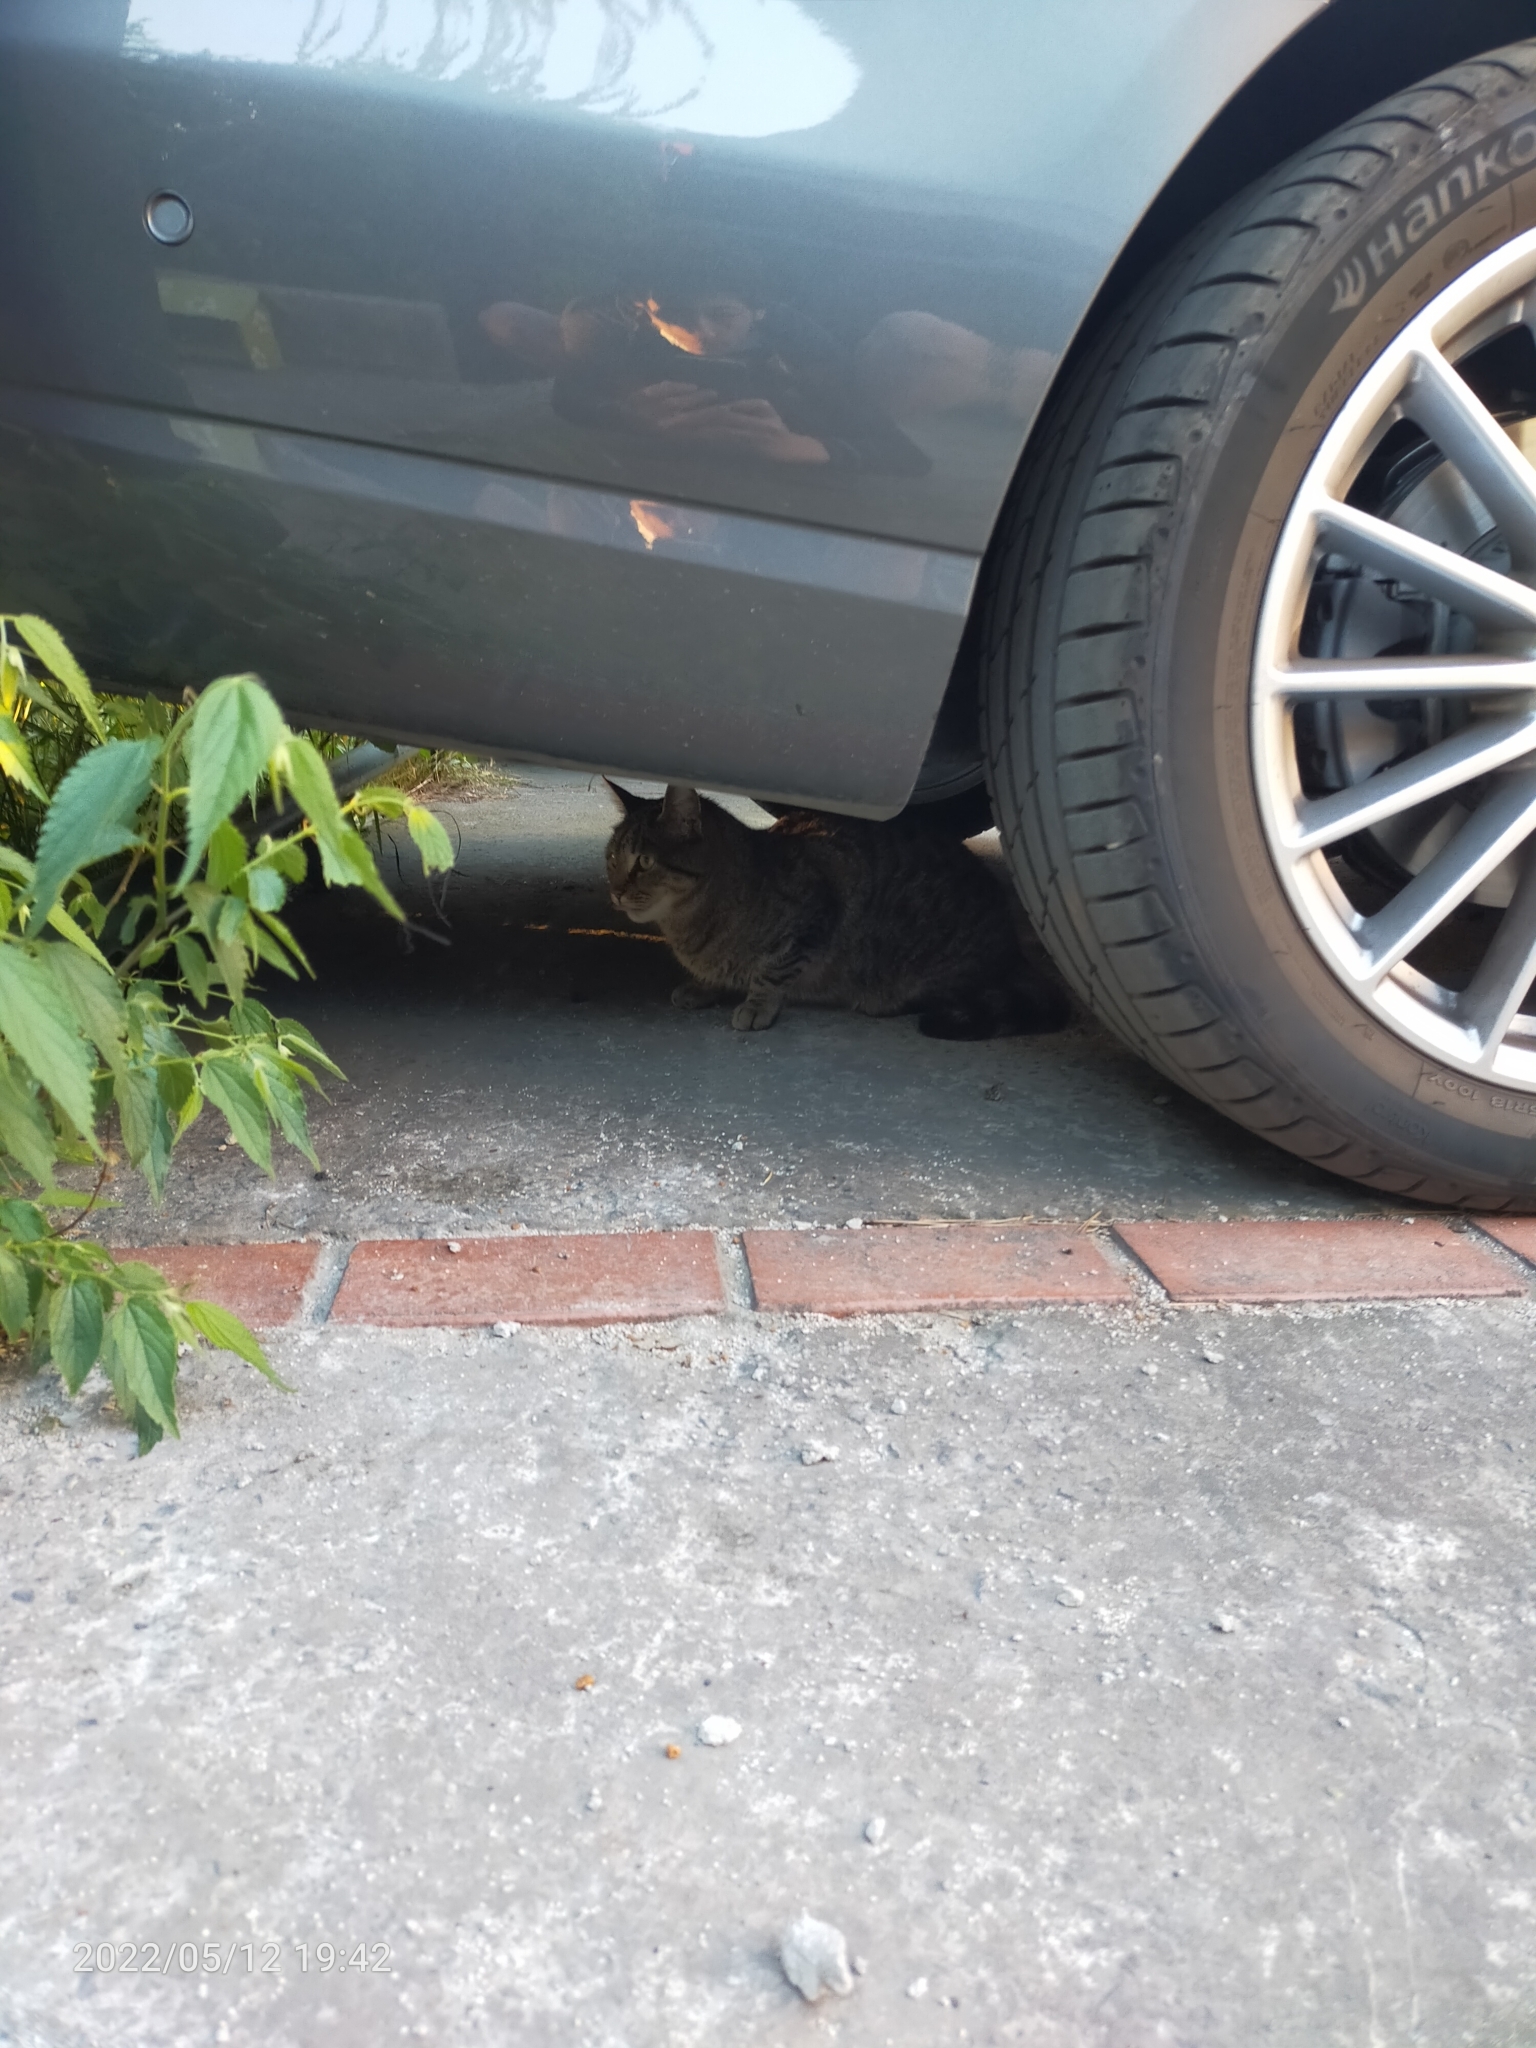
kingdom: Animalia
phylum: Chordata
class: Mammalia
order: Carnivora
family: Felidae
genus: Felis
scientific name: Felis catus
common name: Domestic cat
